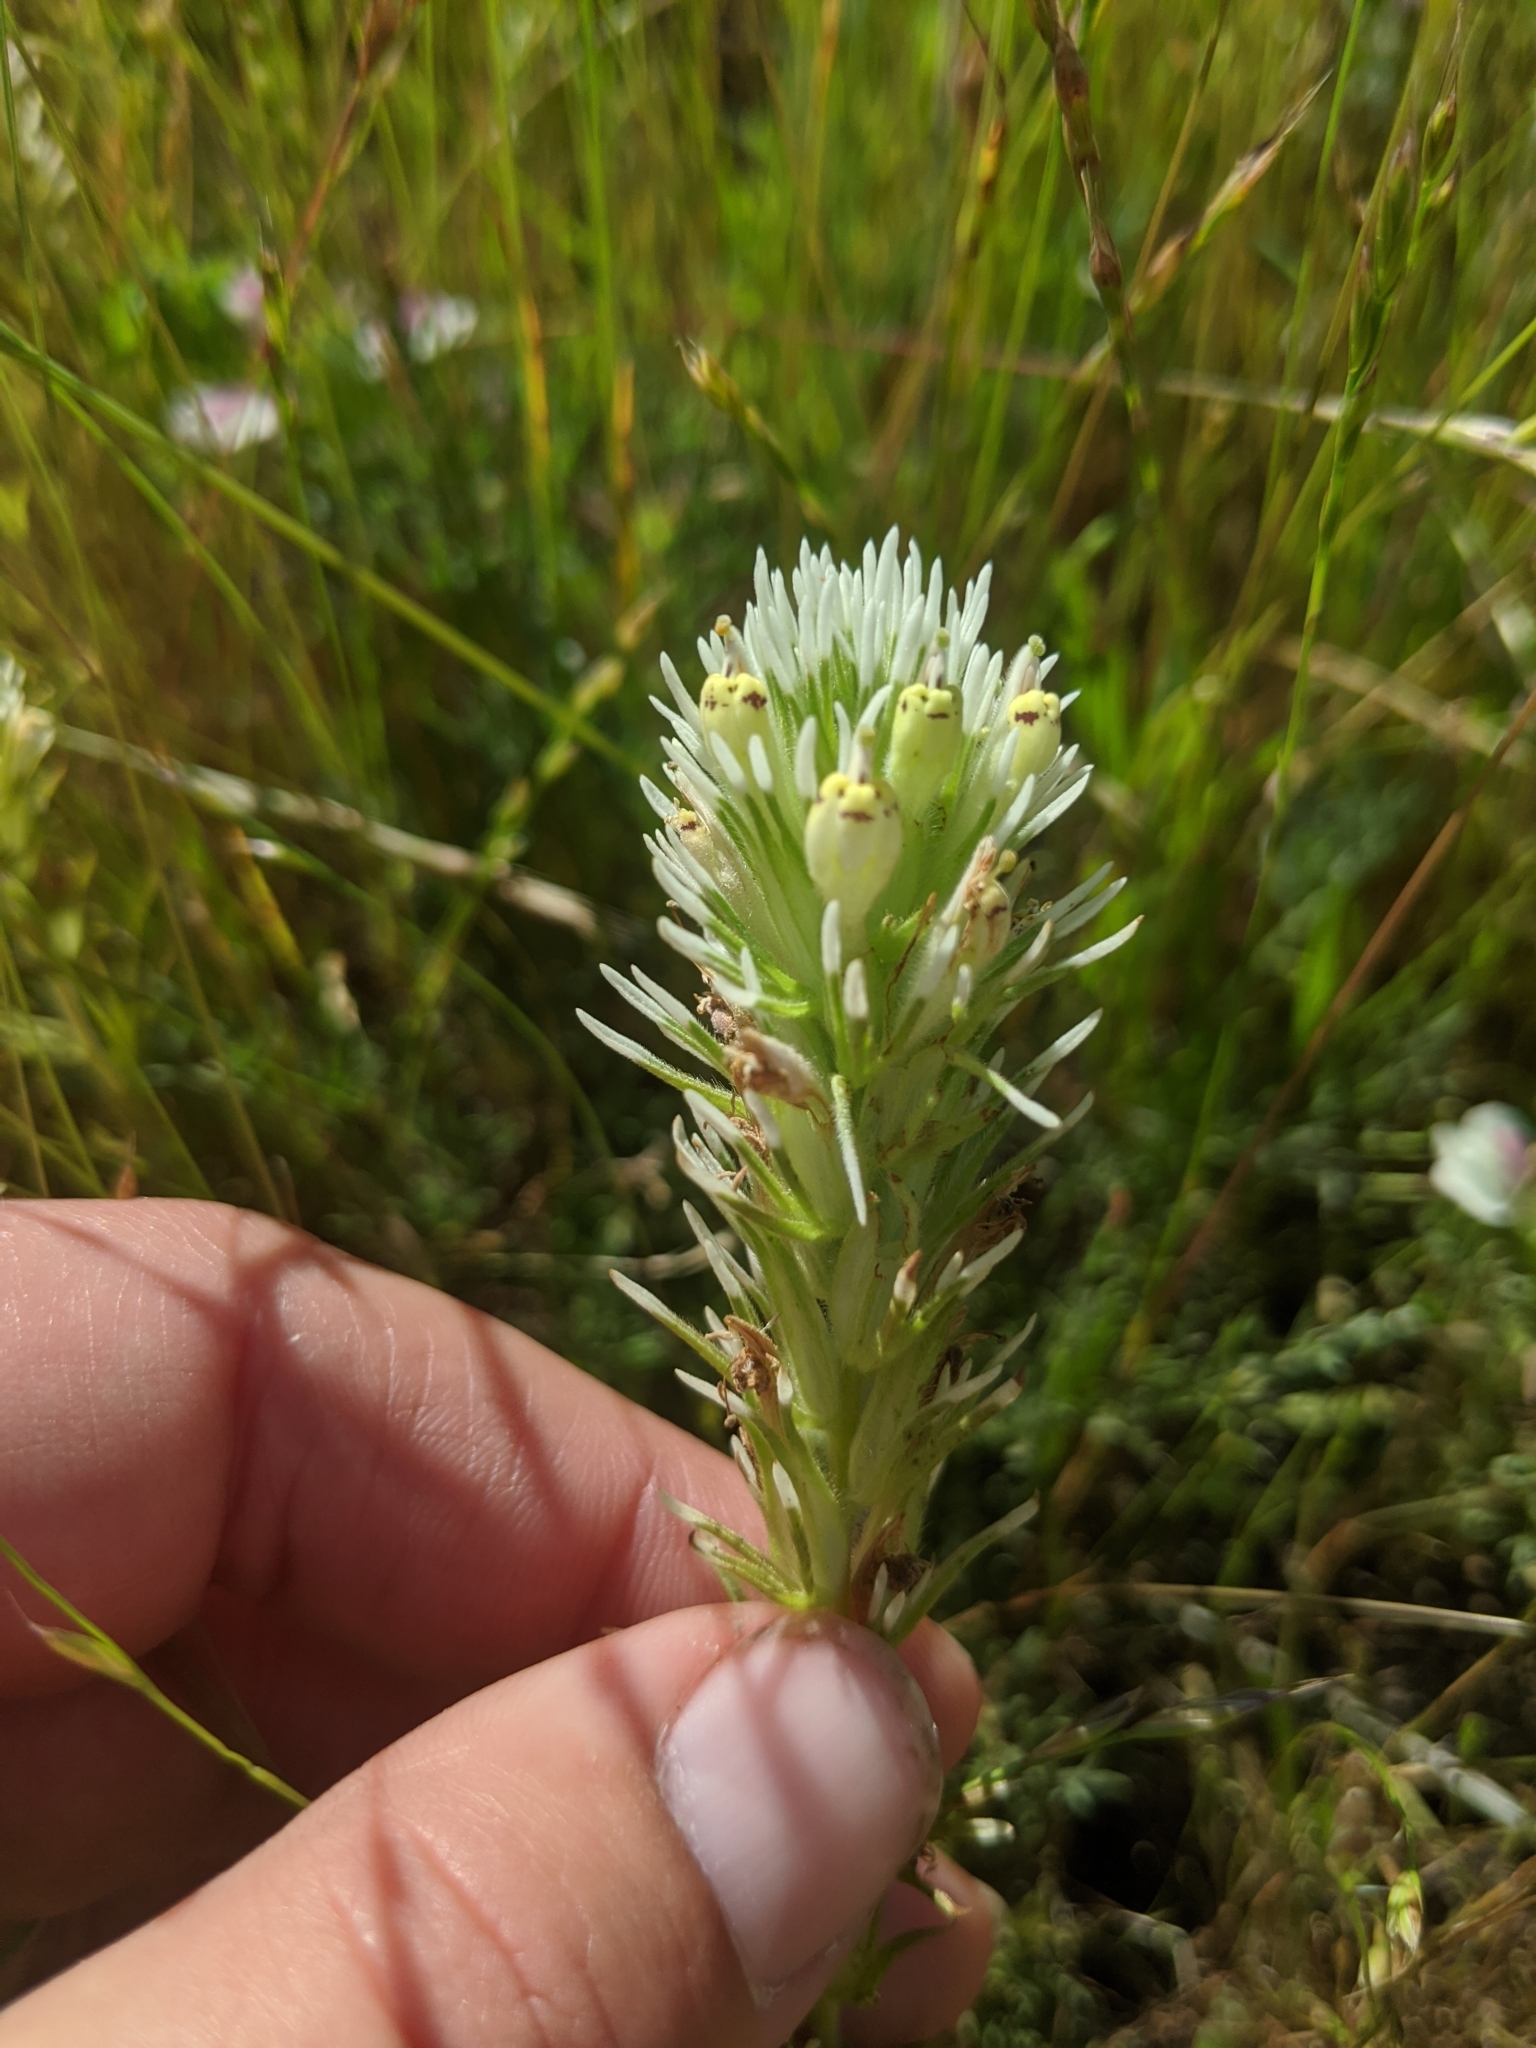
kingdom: Plantae
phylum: Tracheophyta
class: Magnoliopsida
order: Lamiales
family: Orobanchaceae
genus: Castilleja
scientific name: Castilleja densiflora
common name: Dense-flower indian paintbrush
